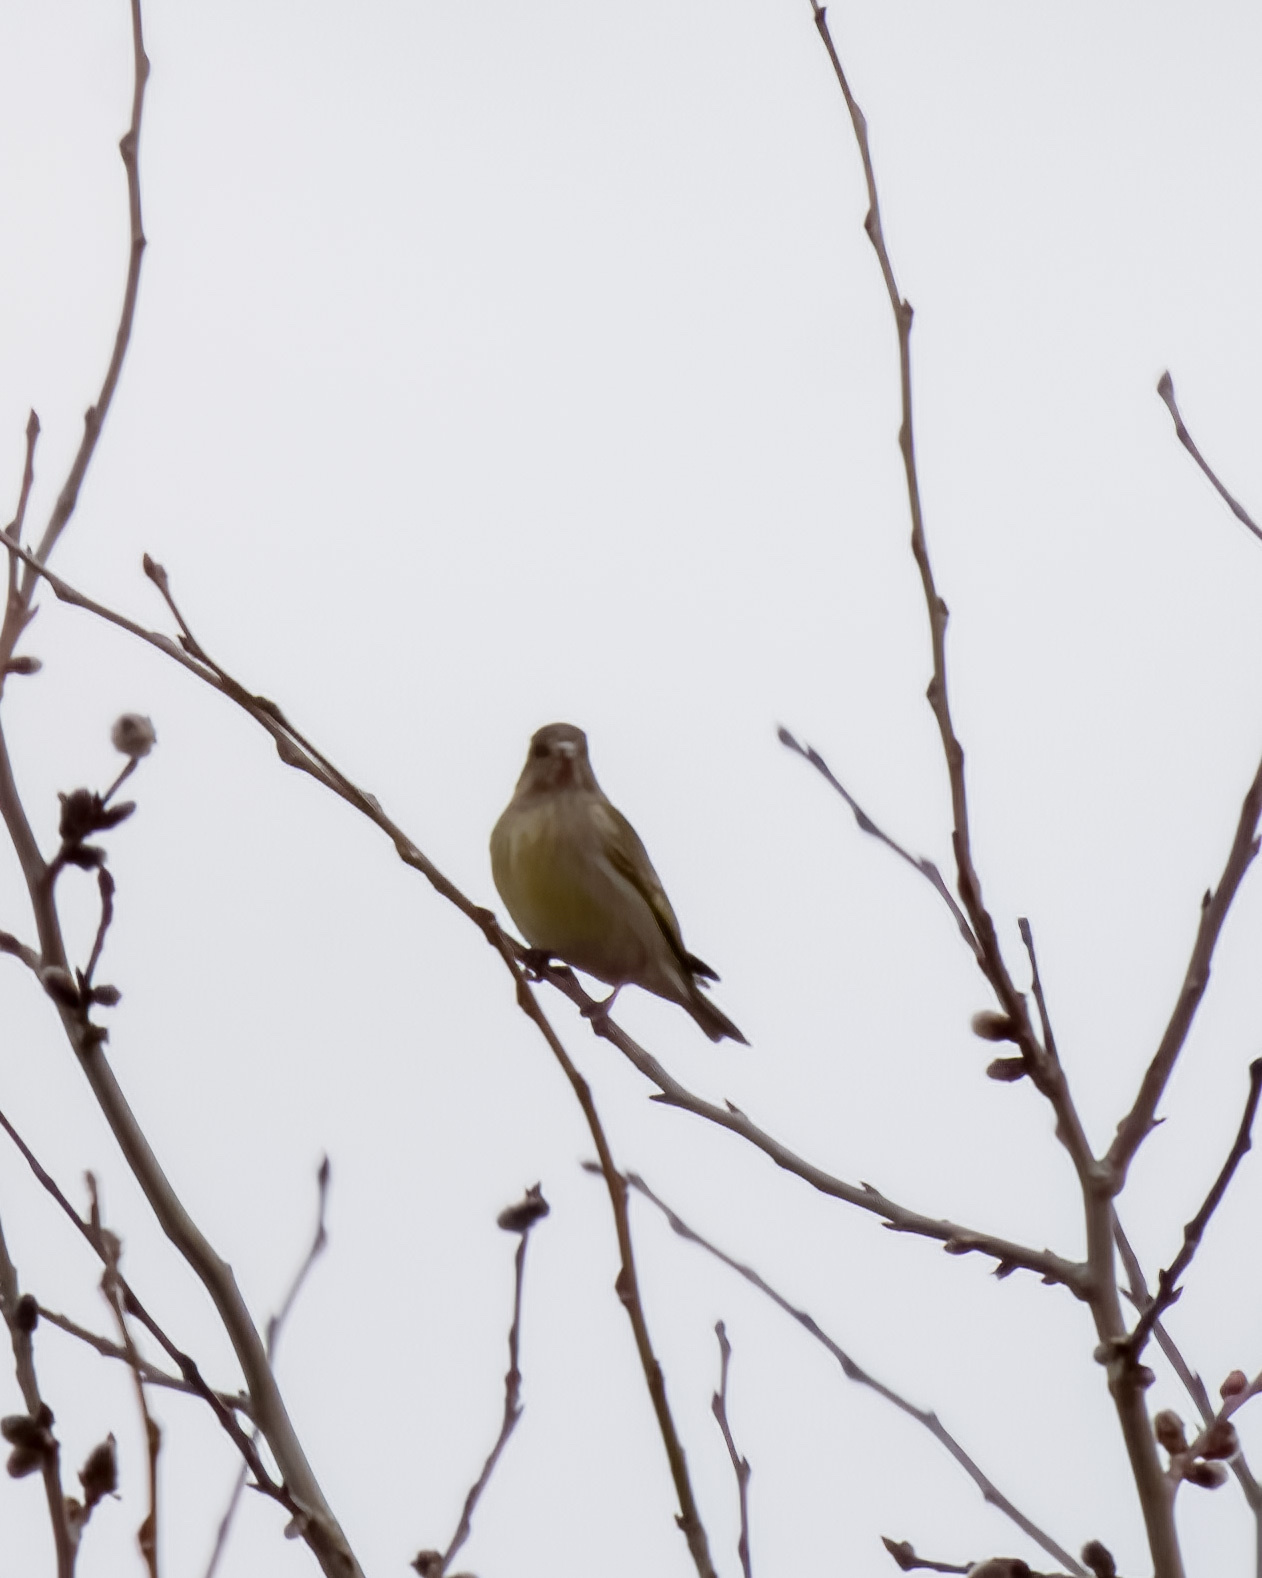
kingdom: Plantae
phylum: Tracheophyta
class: Liliopsida
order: Poales
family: Poaceae
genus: Chloris
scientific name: Chloris chloris
